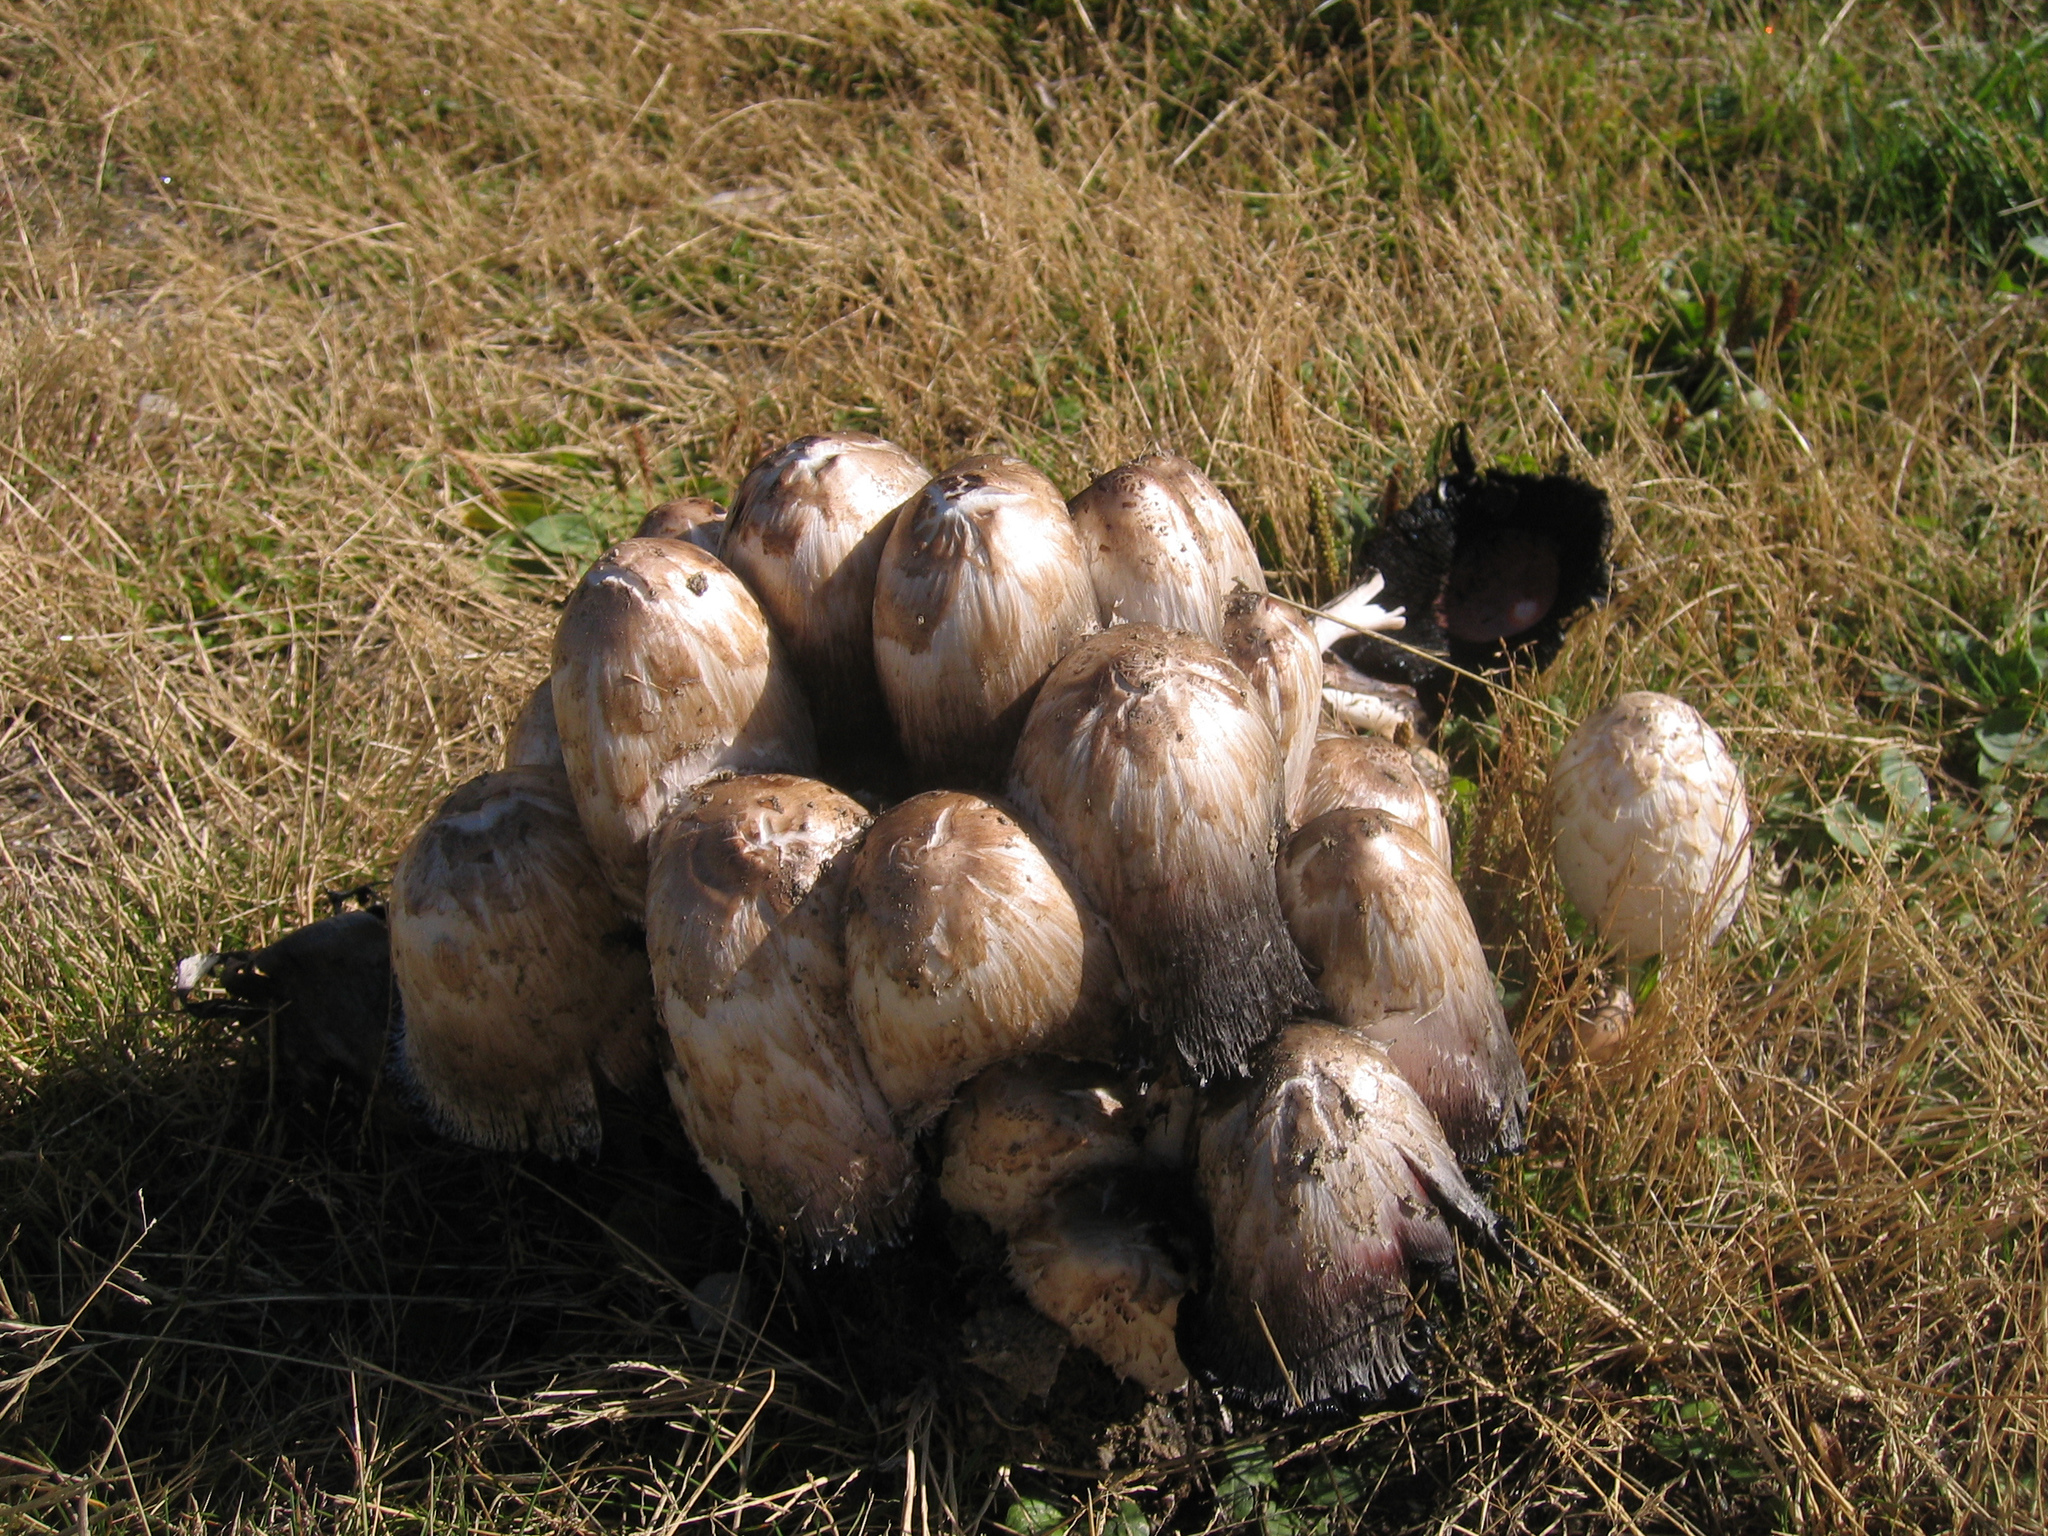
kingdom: Fungi
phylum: Basidiomycota
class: Agaricomycetes
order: Agaricales
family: Agaricaceae
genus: Coprinus
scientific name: Coprinus comatus
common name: Lawyer's wig
